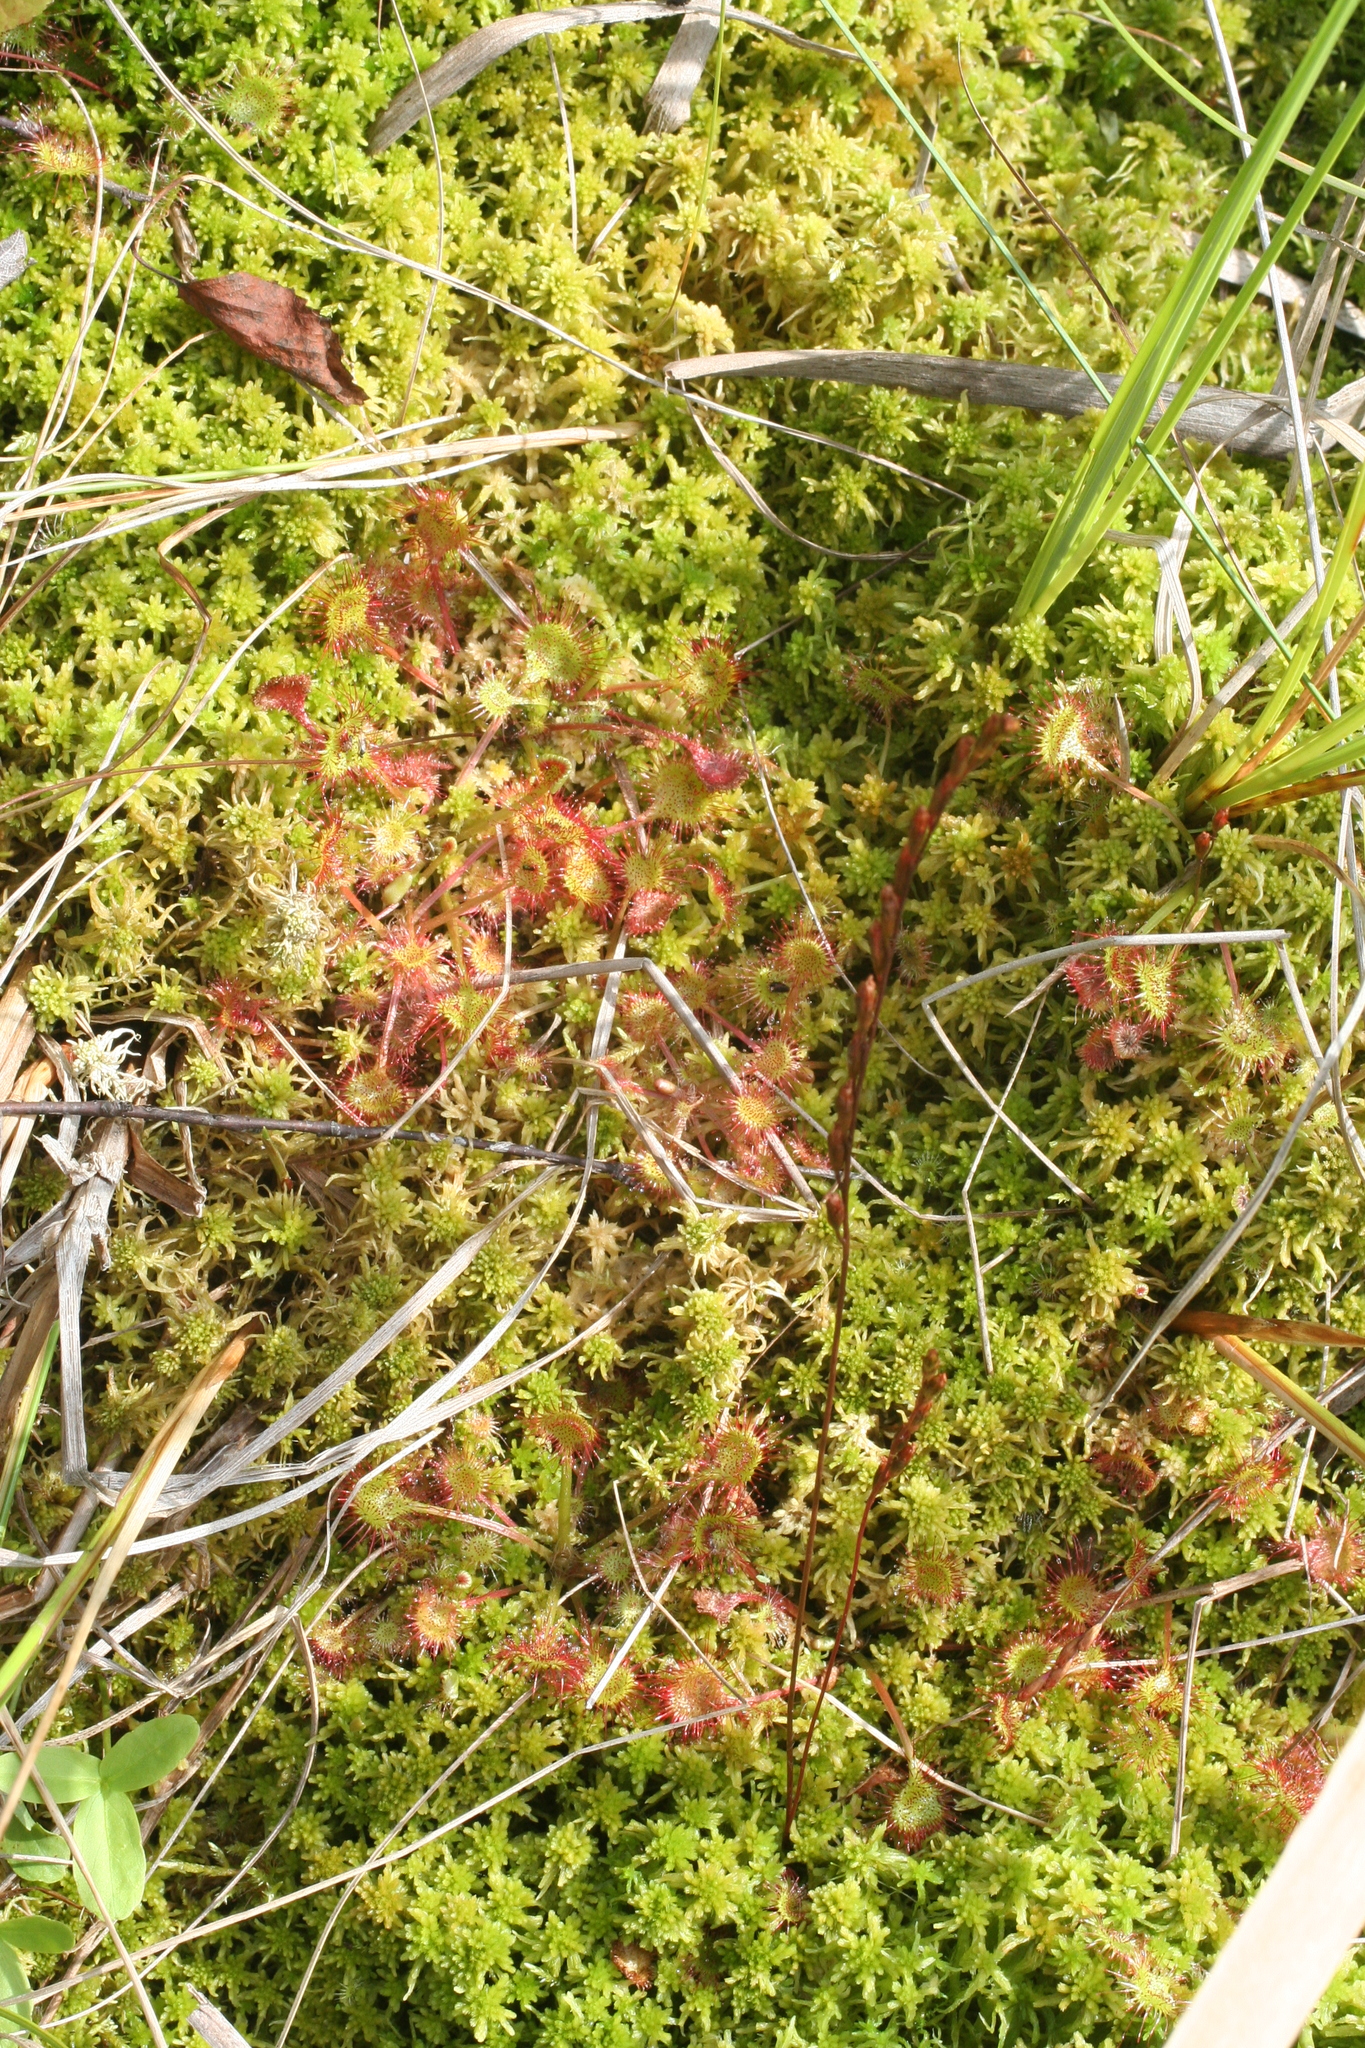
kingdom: Plantae
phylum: Tracheophyta
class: Magnoliopsida
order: Caryophyllales
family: Droseraceae
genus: Drosera
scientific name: Drosera rotundifolia
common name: Round-leaved sundew
